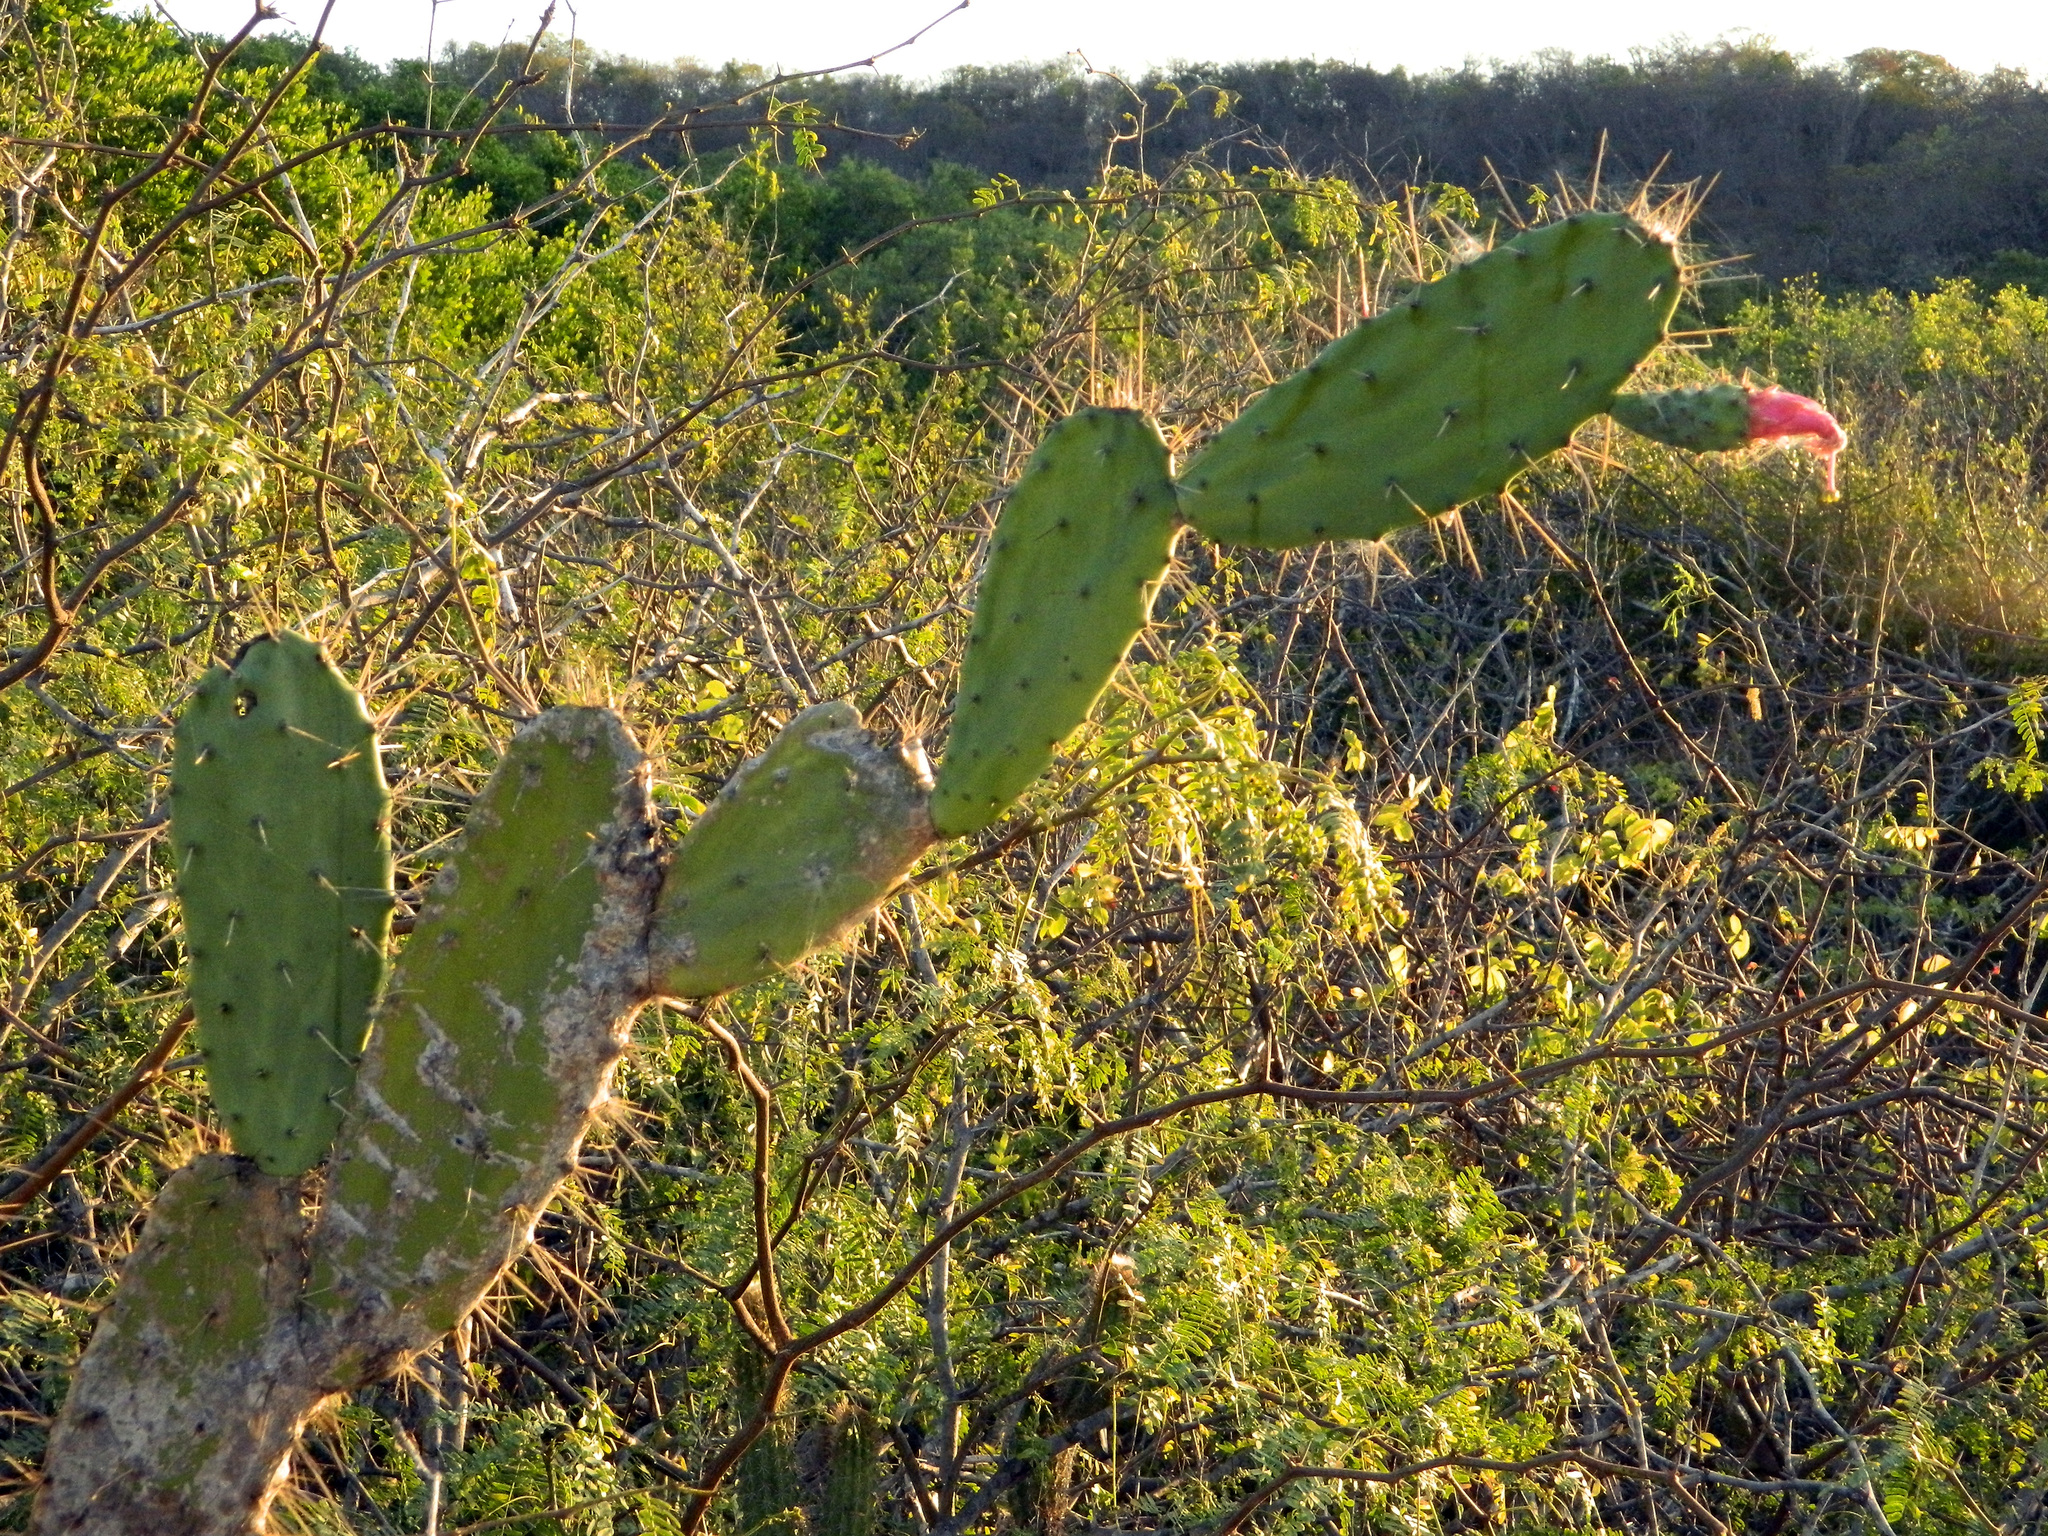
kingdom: Plantae
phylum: Tracheophyta
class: Magnoliopsida
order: Caryophyllales
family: Cactaceae
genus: Opuntia
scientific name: Opuntia hyptiacantha
